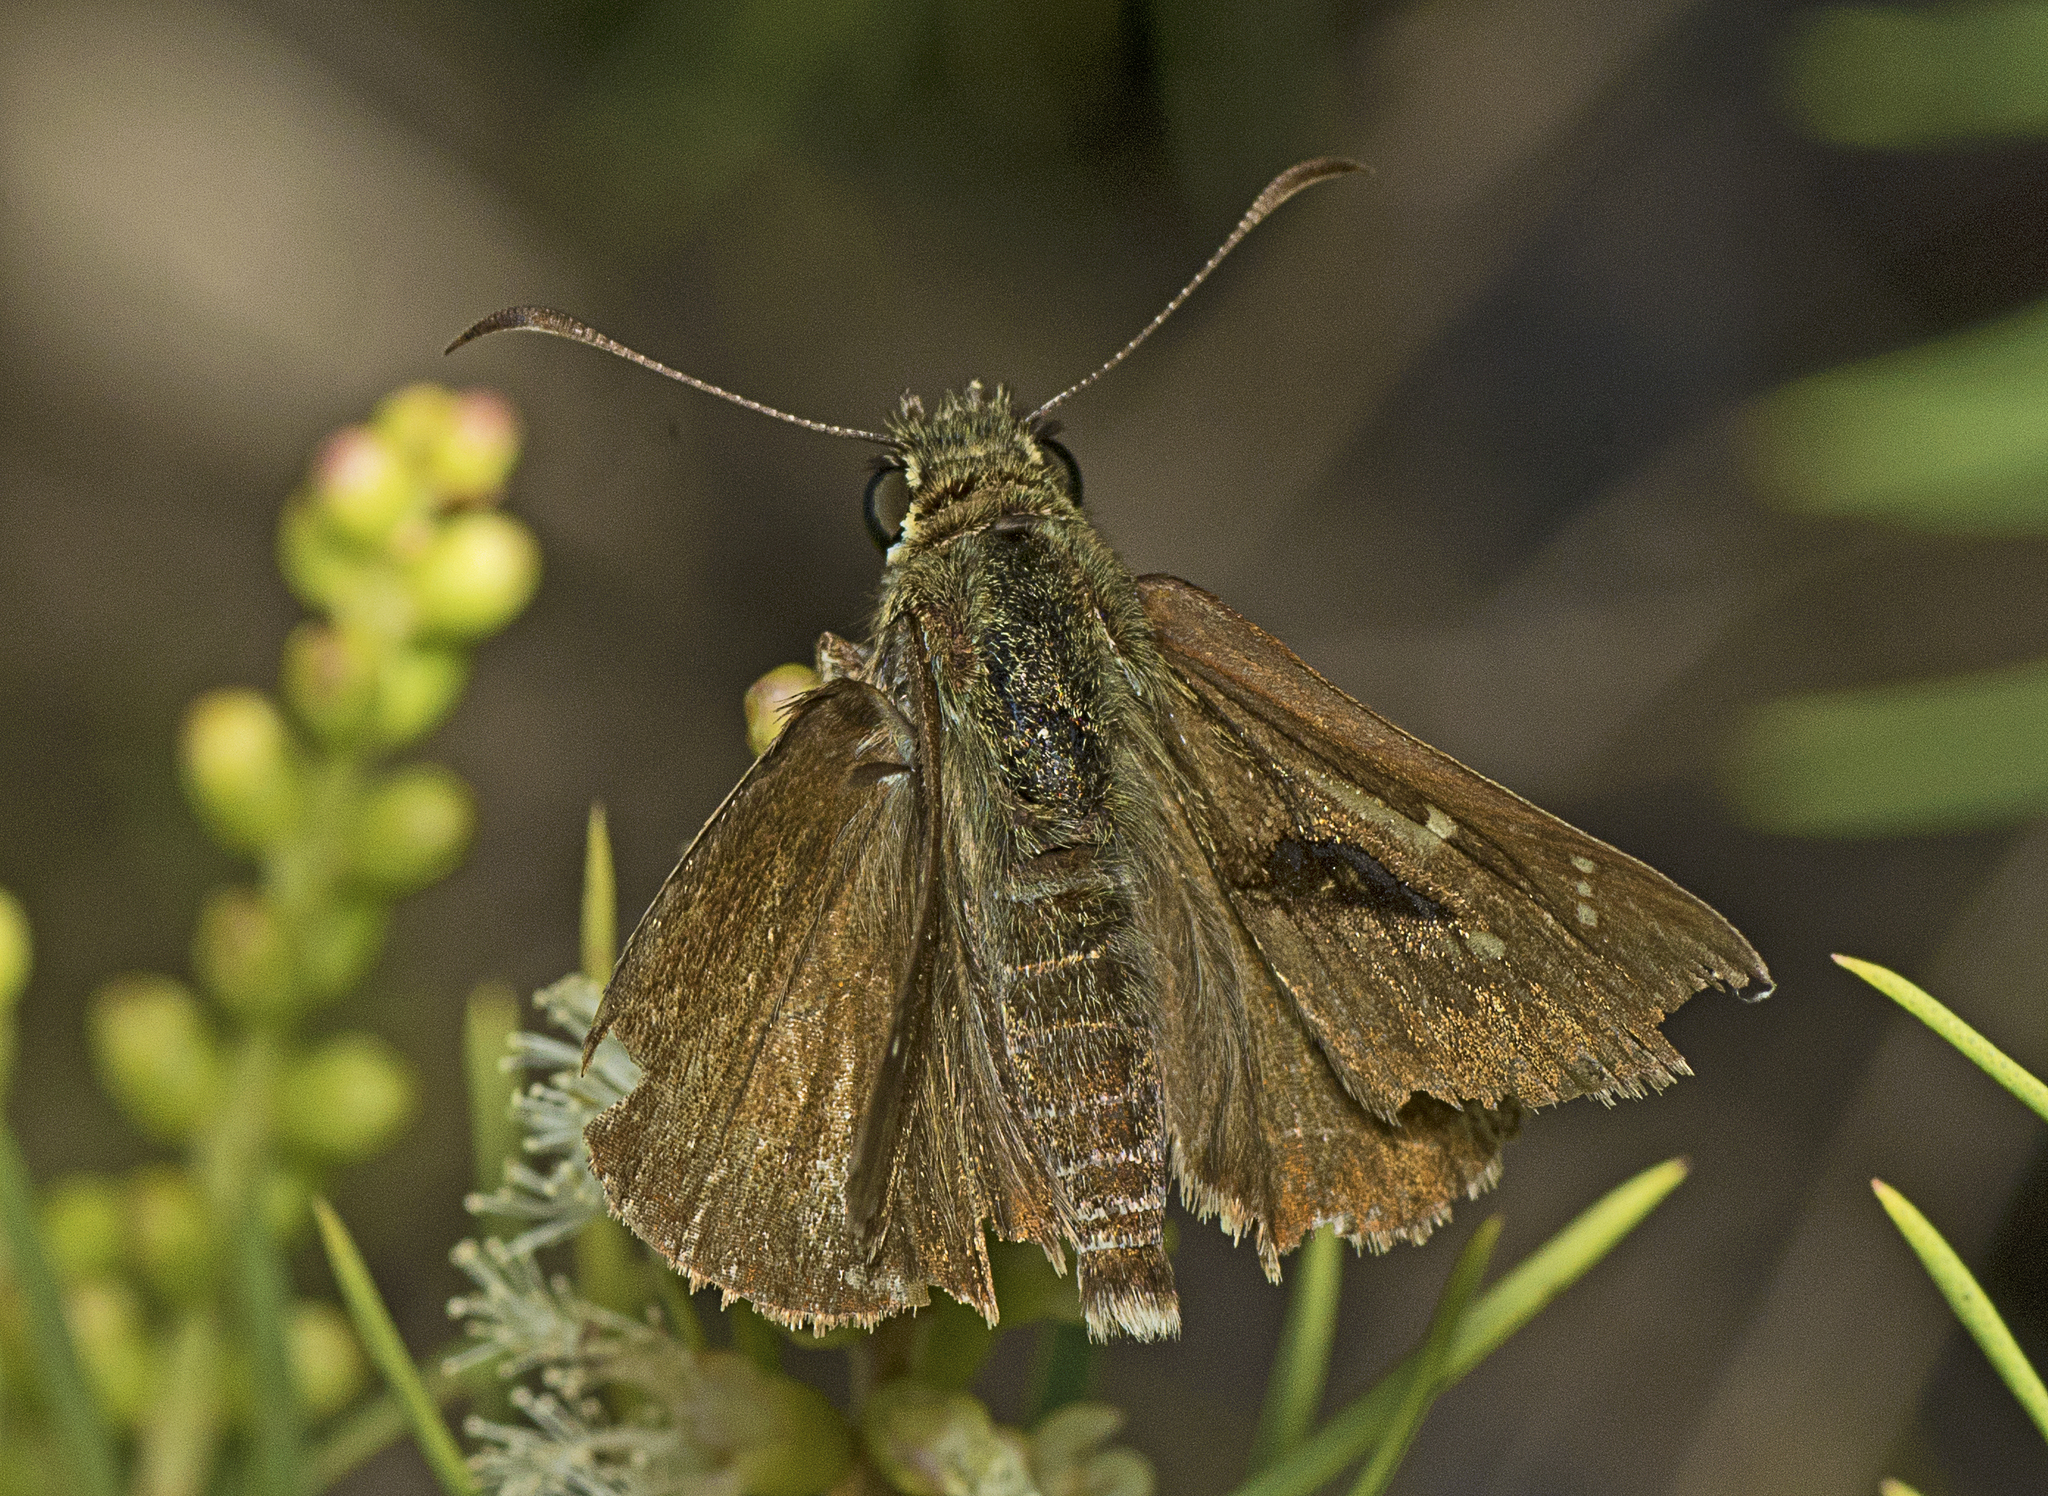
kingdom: Animalia
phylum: Arthropoda
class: Insecta
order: Lepidoptera
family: Hesperiidae
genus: Toxidia
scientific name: Toxidia
